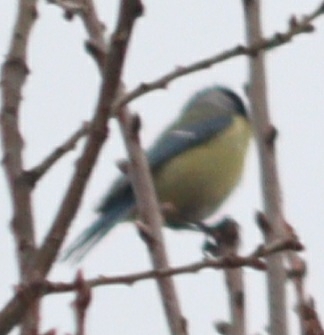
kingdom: Animalia
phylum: Chordata
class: Aves
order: Passeriformes
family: Paridae
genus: Cyanistes
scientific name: Cyanistes caeruleus
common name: Eurasian blue tit
